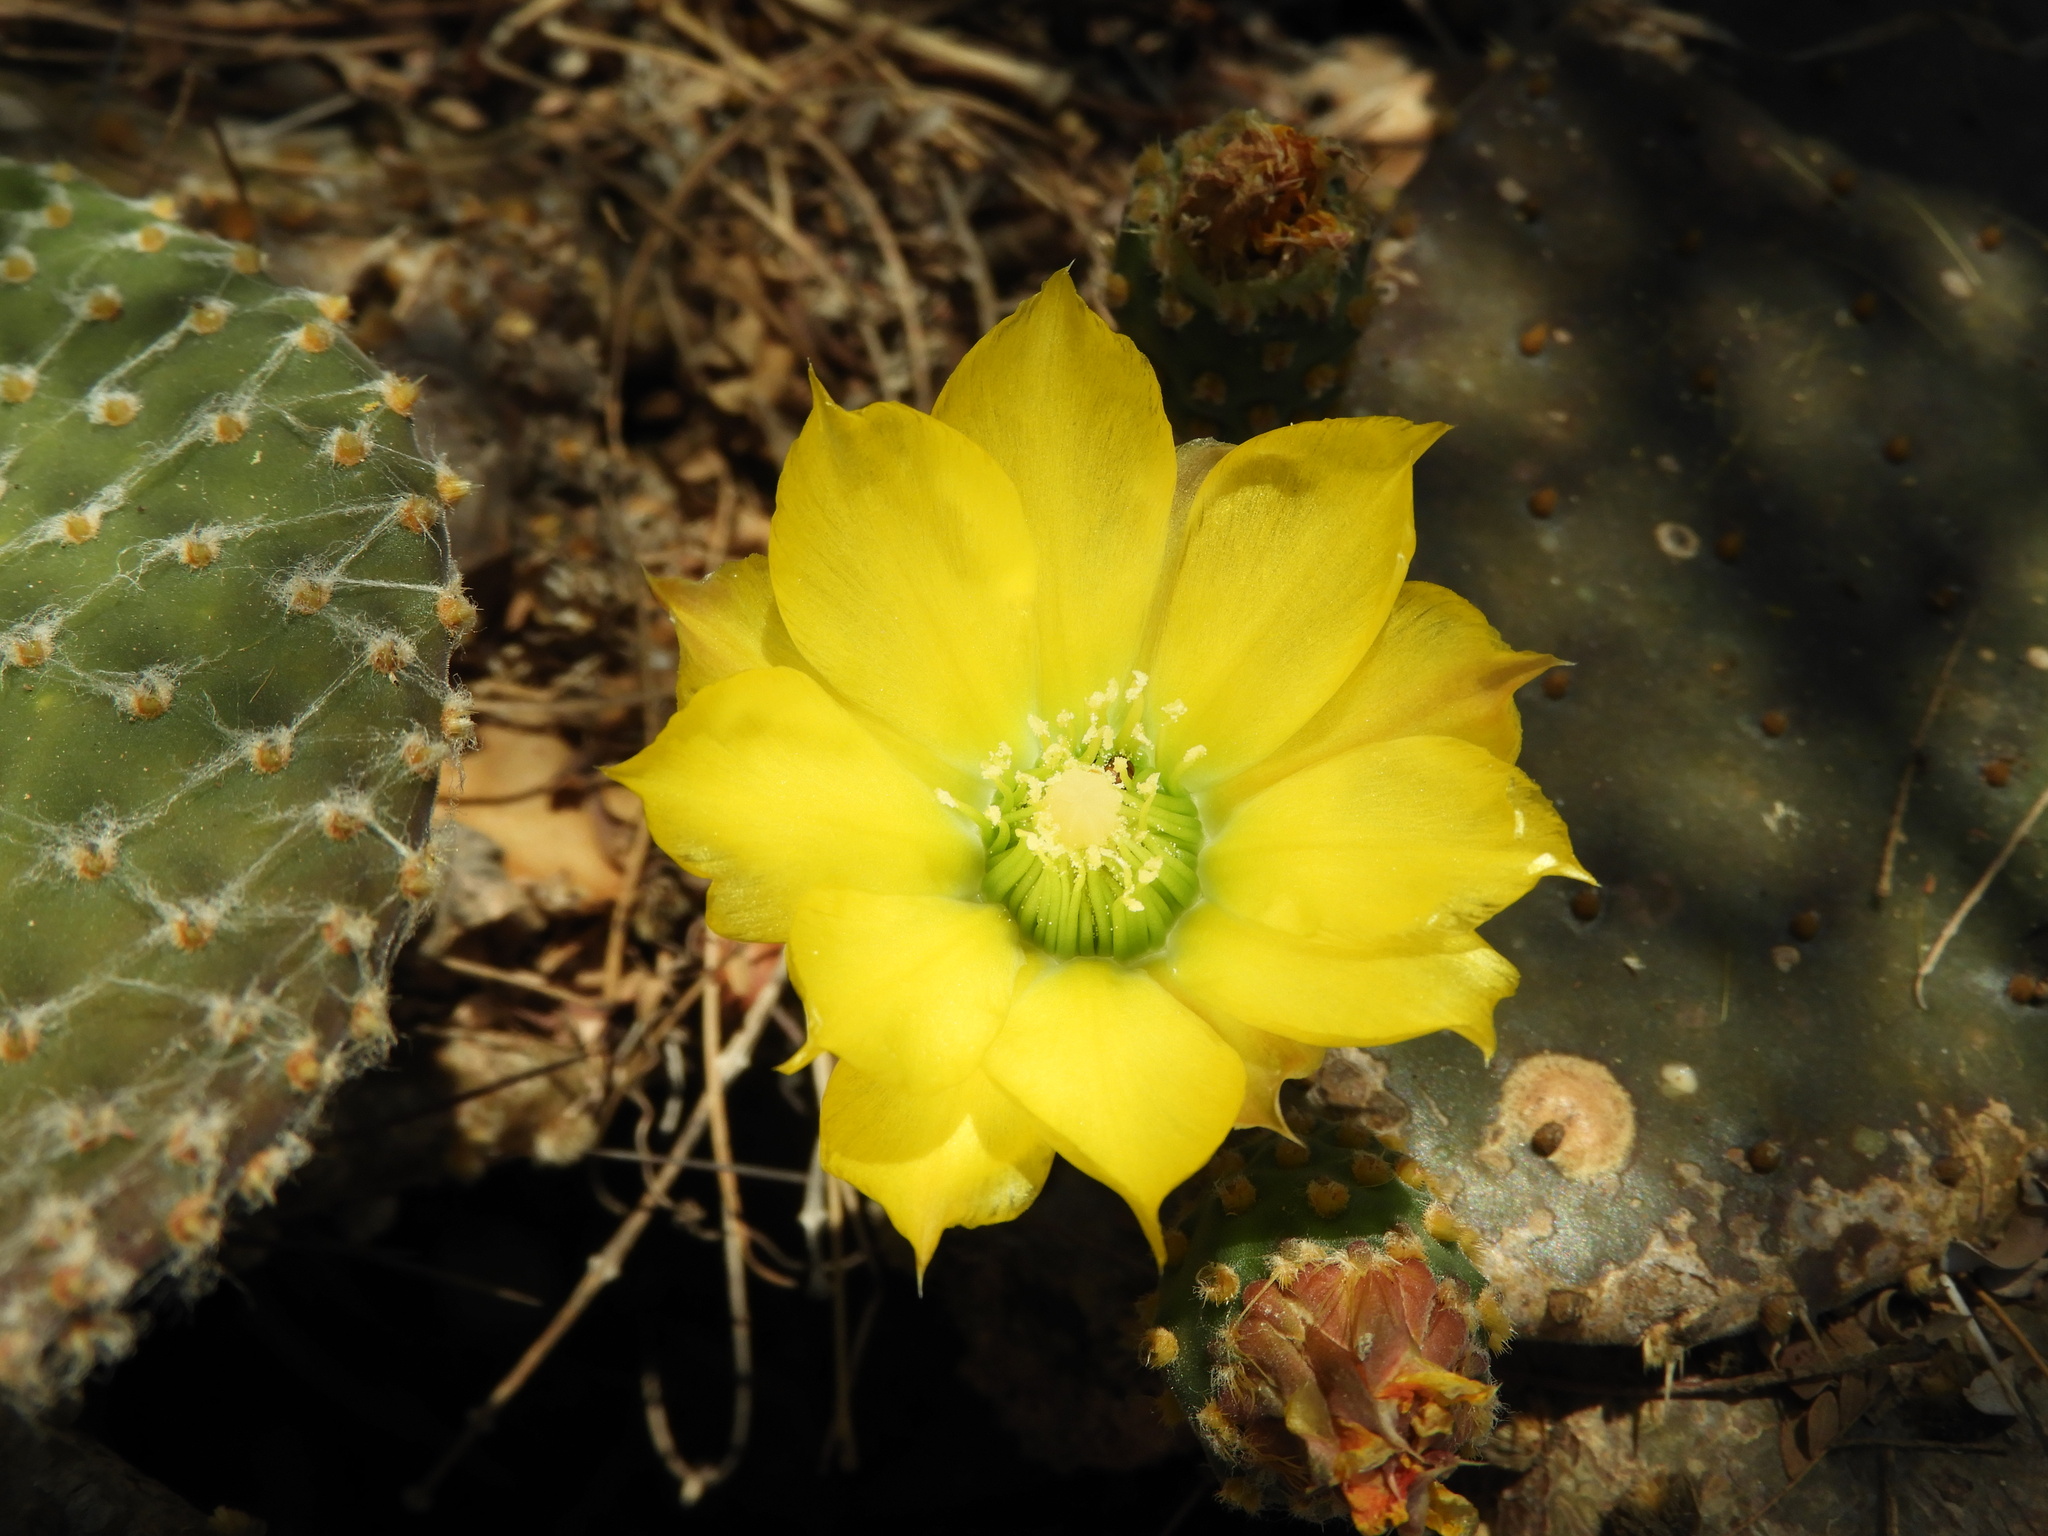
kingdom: Plantae
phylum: Tracheophyta
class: Magnoliopsida
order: Caryophyllales
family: Cactaceae
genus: Opuntia
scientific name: Opuntia decumbens
